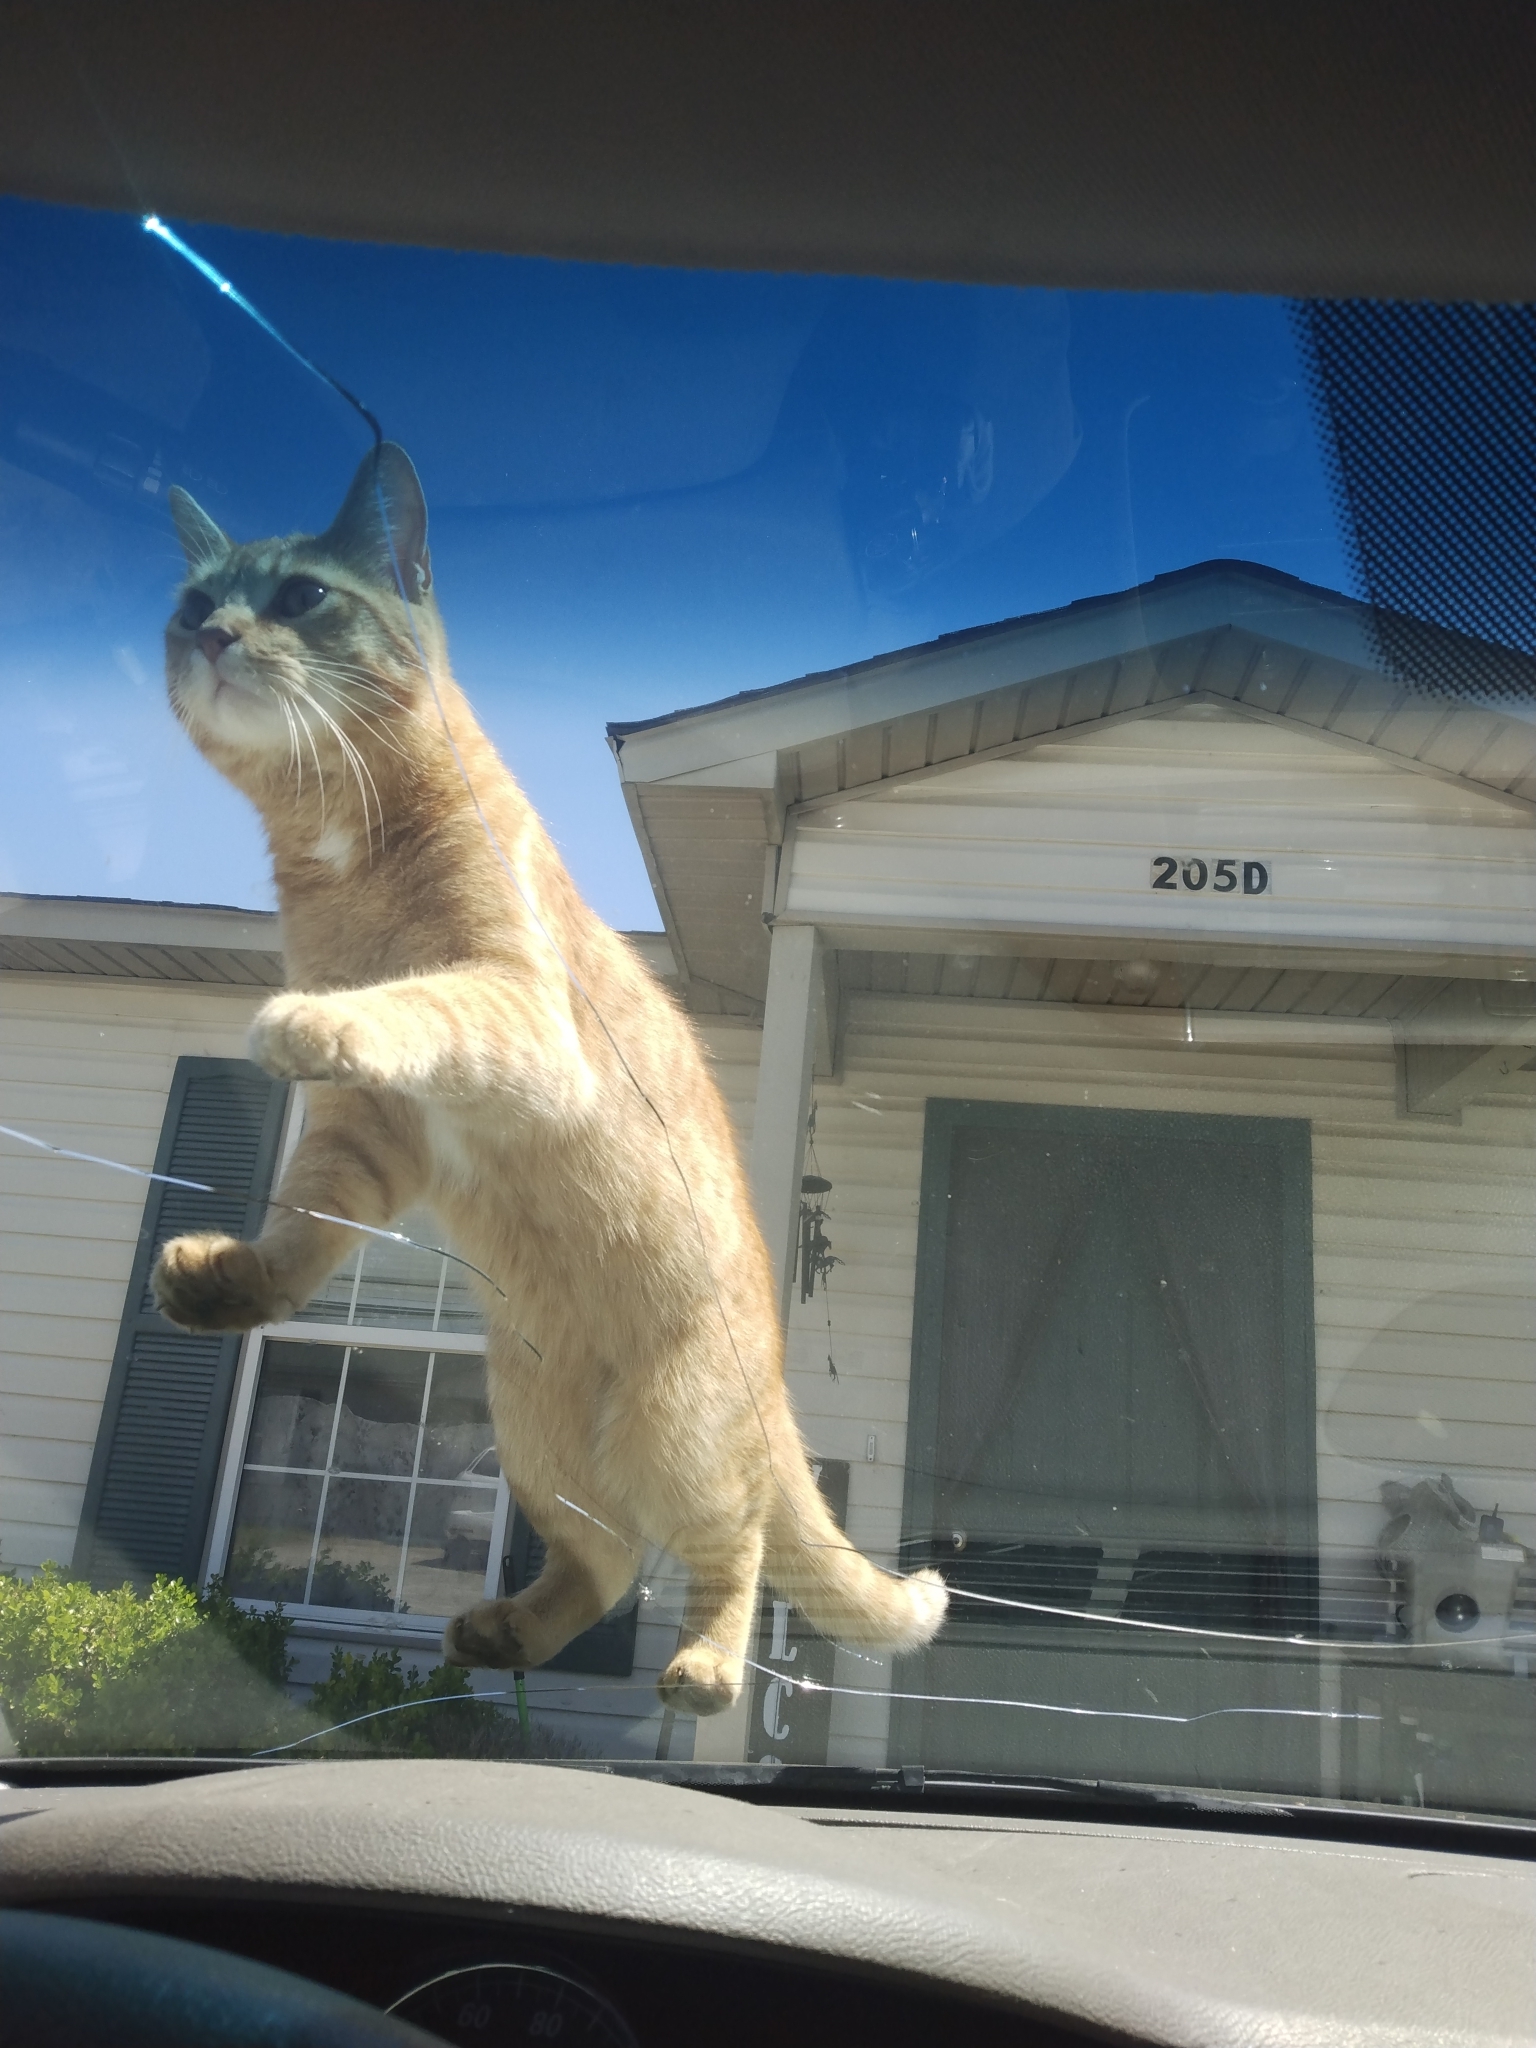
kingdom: Animalia
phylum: Chordata
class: Mammalia
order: Carnivora
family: Felidae
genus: Felis
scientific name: Felis catus
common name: Domestic cat
